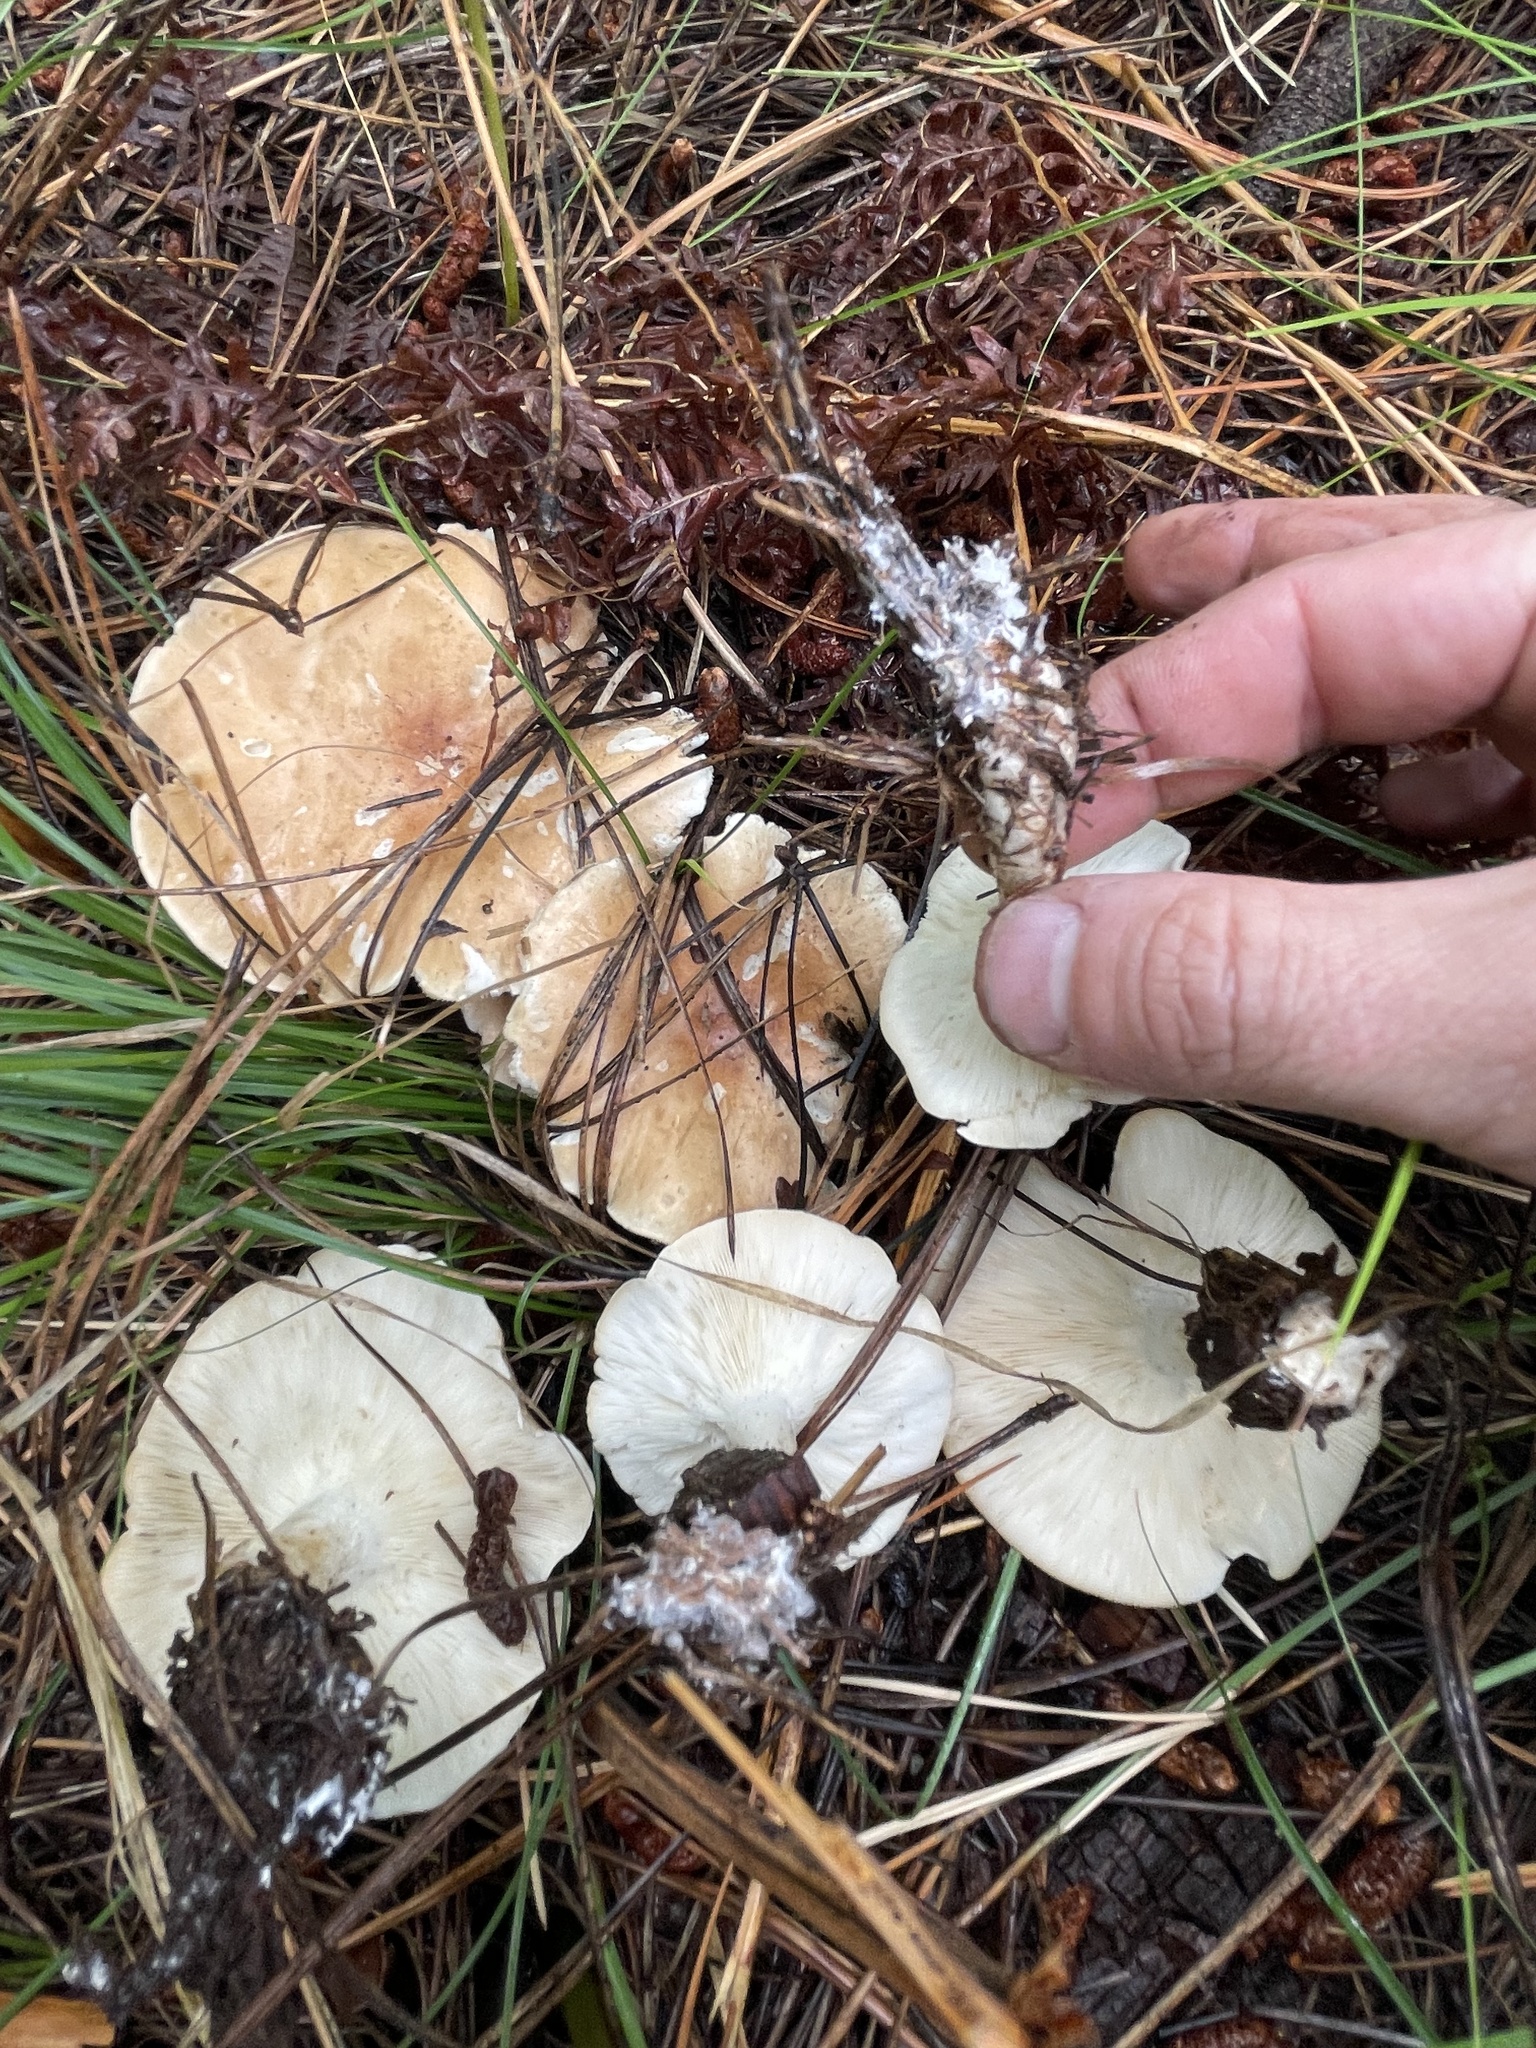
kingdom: Fungi
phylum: Basidiomycota
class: Agaricomycetes
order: Agaricales
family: Tricholomataceae
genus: Leucopaxillus
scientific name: Leucopaxillus gentianeus
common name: Bitter funnel
